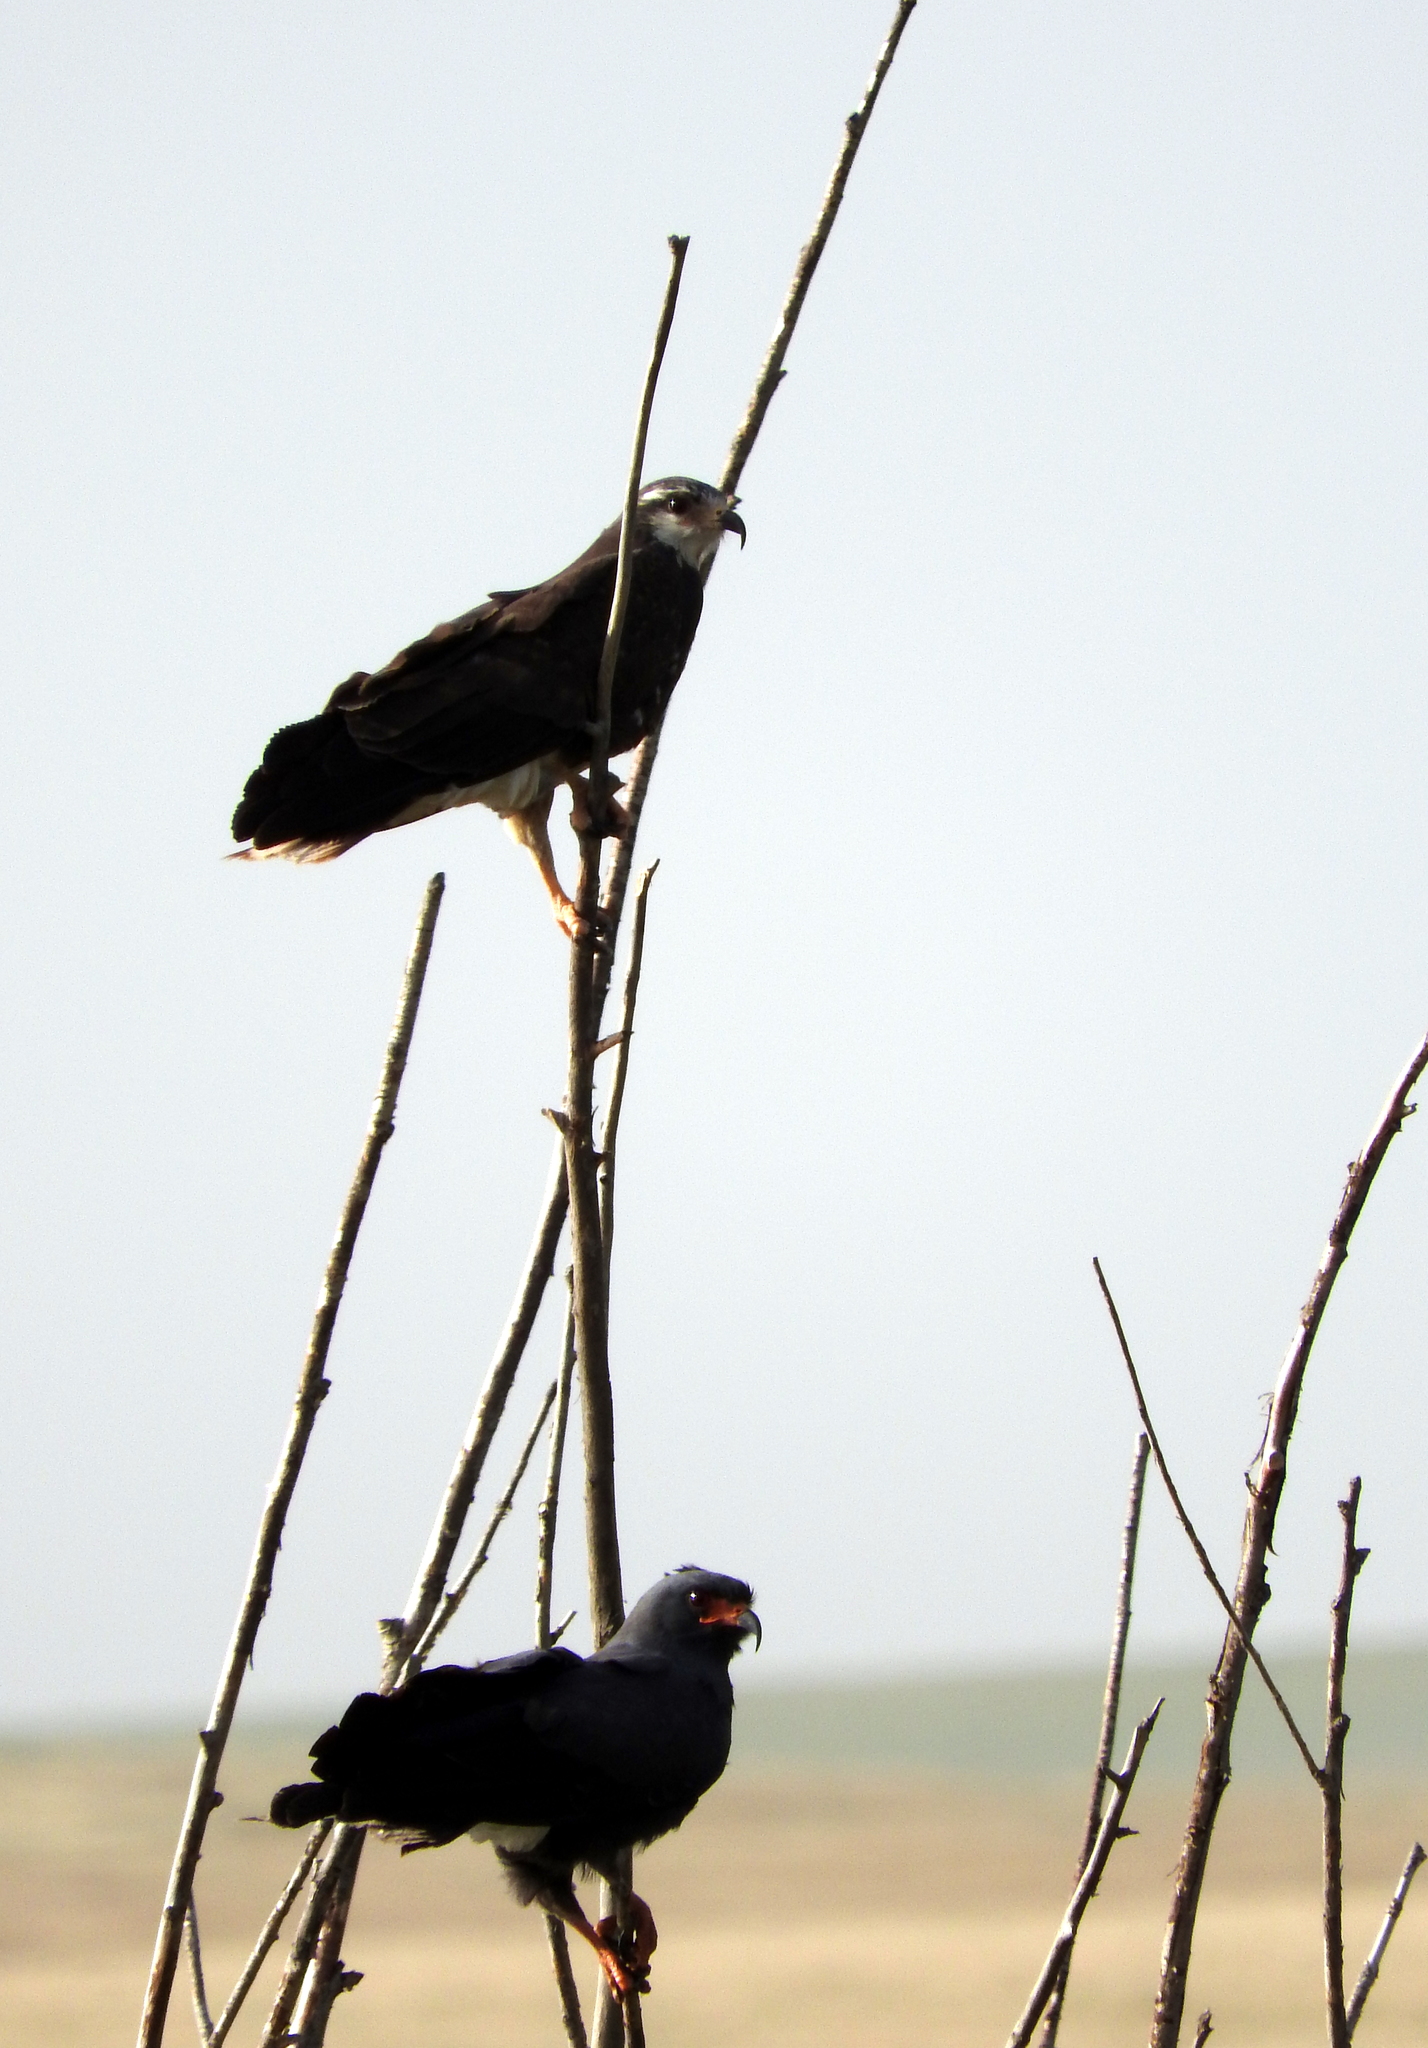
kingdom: Animalia
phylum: Chordata
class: Aves
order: Accipitriformes
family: Accipitridae
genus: Rostrhamus
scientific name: Rostrhamus sociabilis
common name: Snail kite
